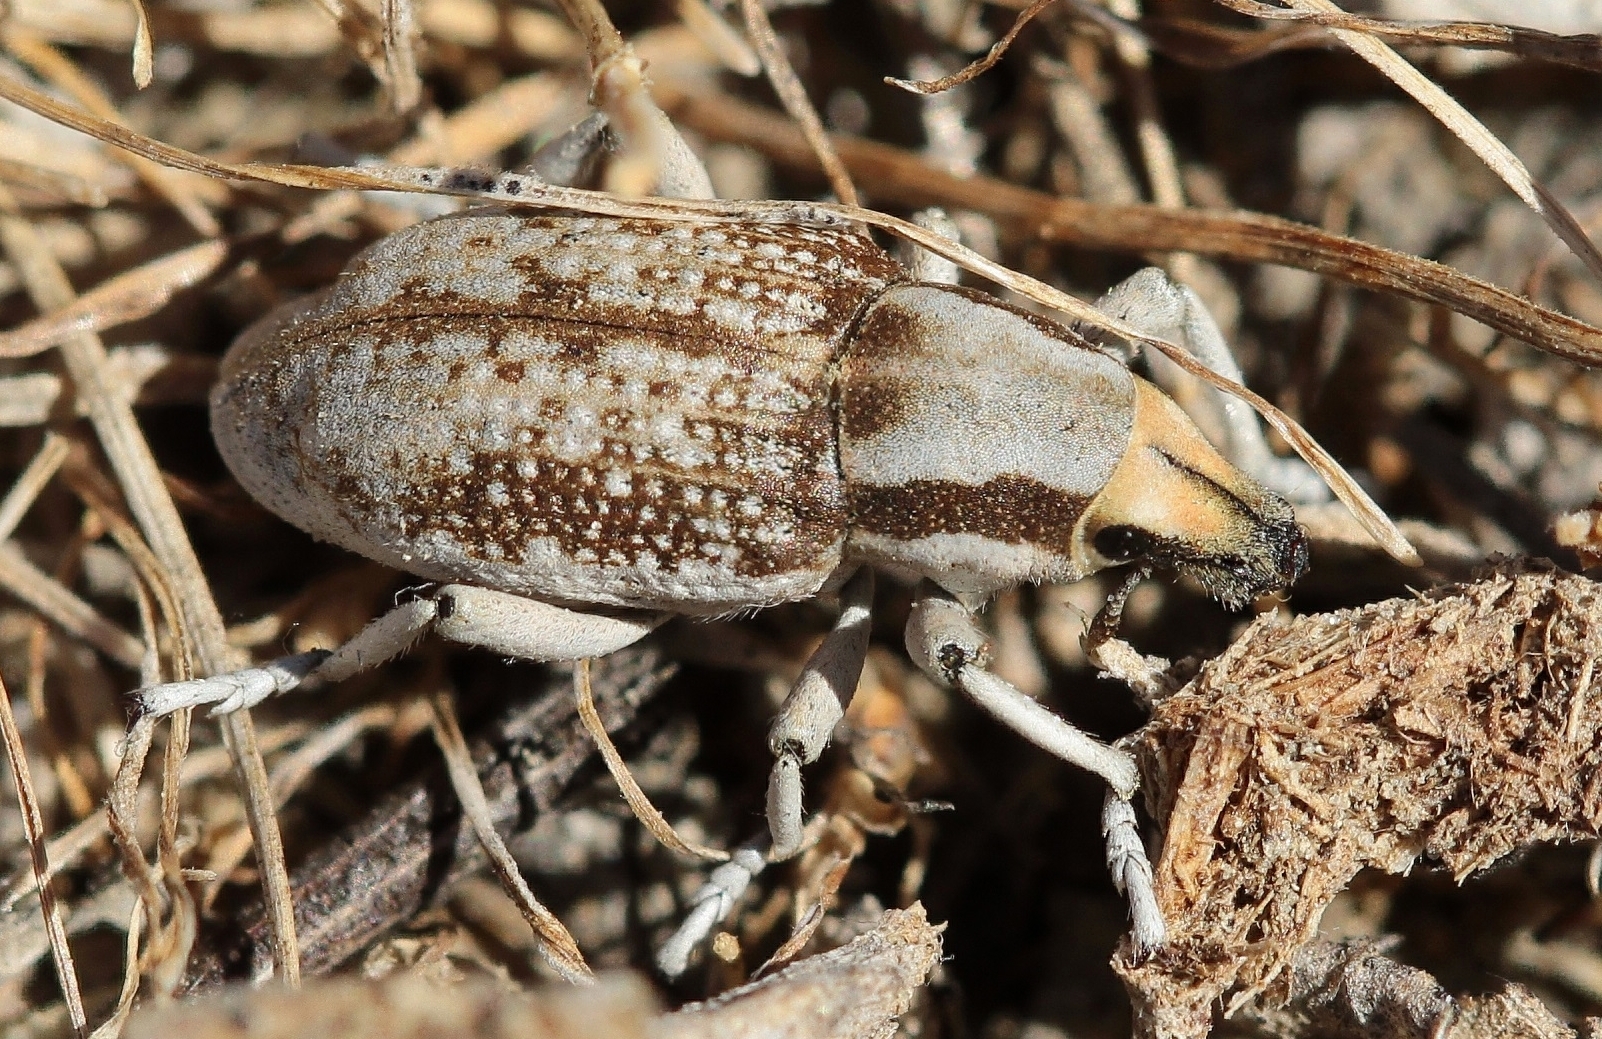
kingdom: Animalia
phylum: Arthropoda
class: Insecta
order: Coleoptera
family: Curculionidae
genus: Cleonus
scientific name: Cleonus conirostris
